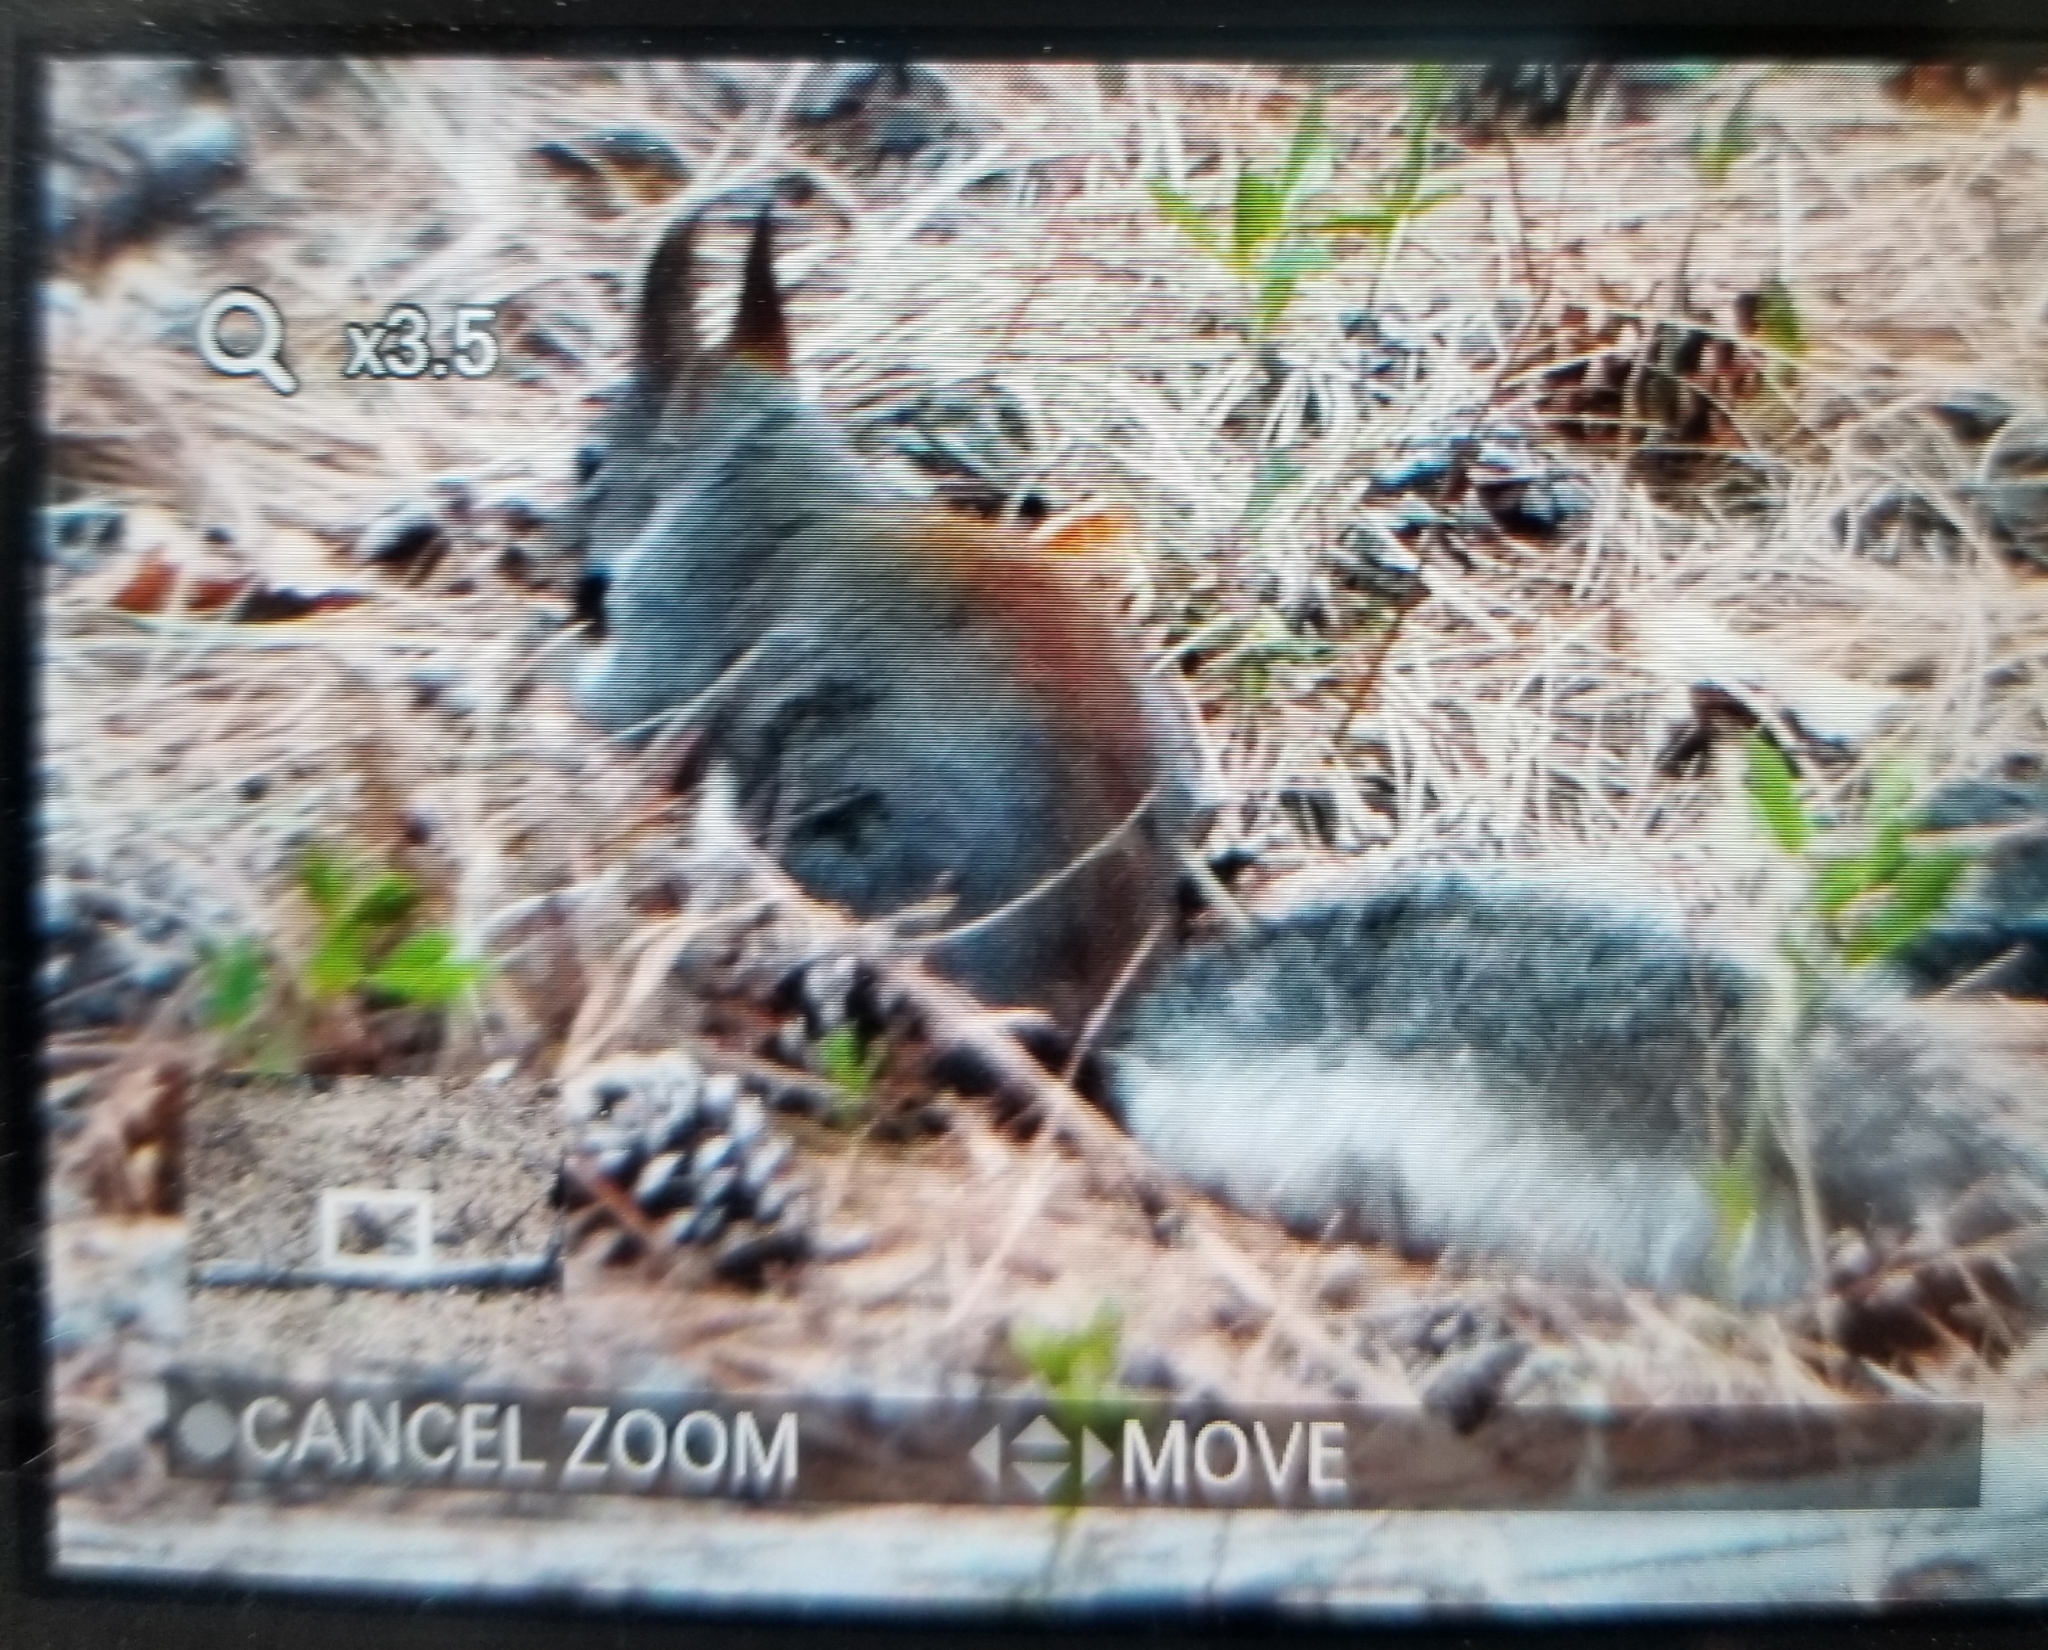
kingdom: Animalia
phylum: Chordata
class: Mammalia
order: Rodentia
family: Sciuridae
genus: Sciurus
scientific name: Sciurus aberti
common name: Abert's squirrel
